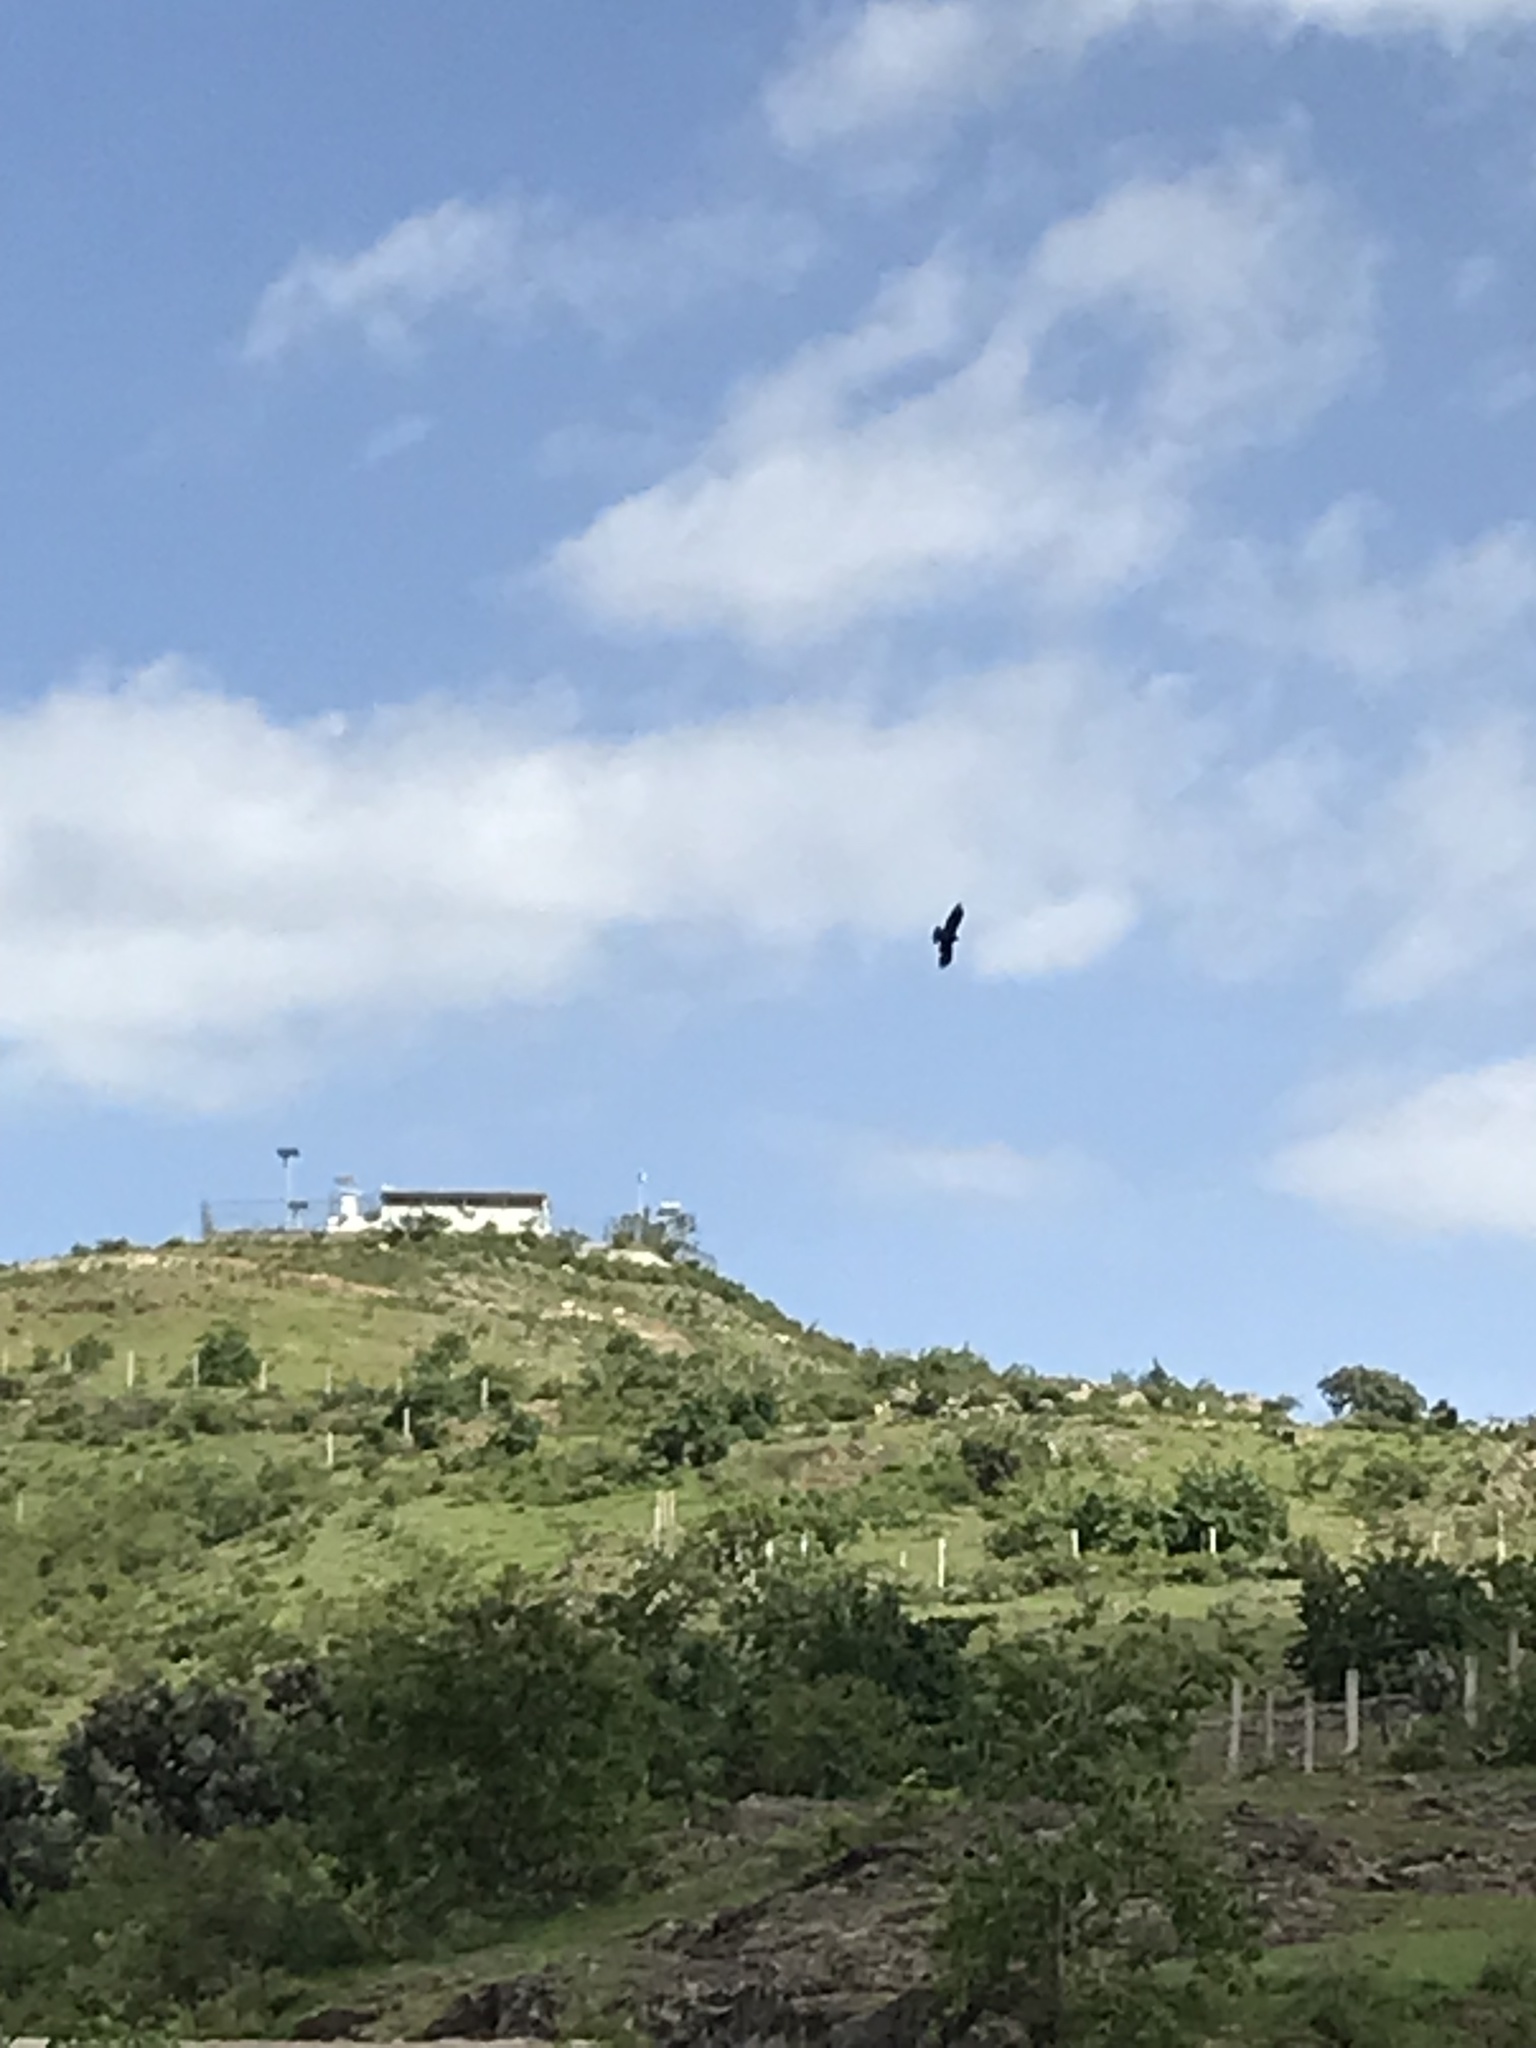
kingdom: Animalia
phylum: Chordata
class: Aves
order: Accipitriformes
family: Cathartidae
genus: Cathartes
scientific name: Cathartes aura
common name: Turkey vulture
